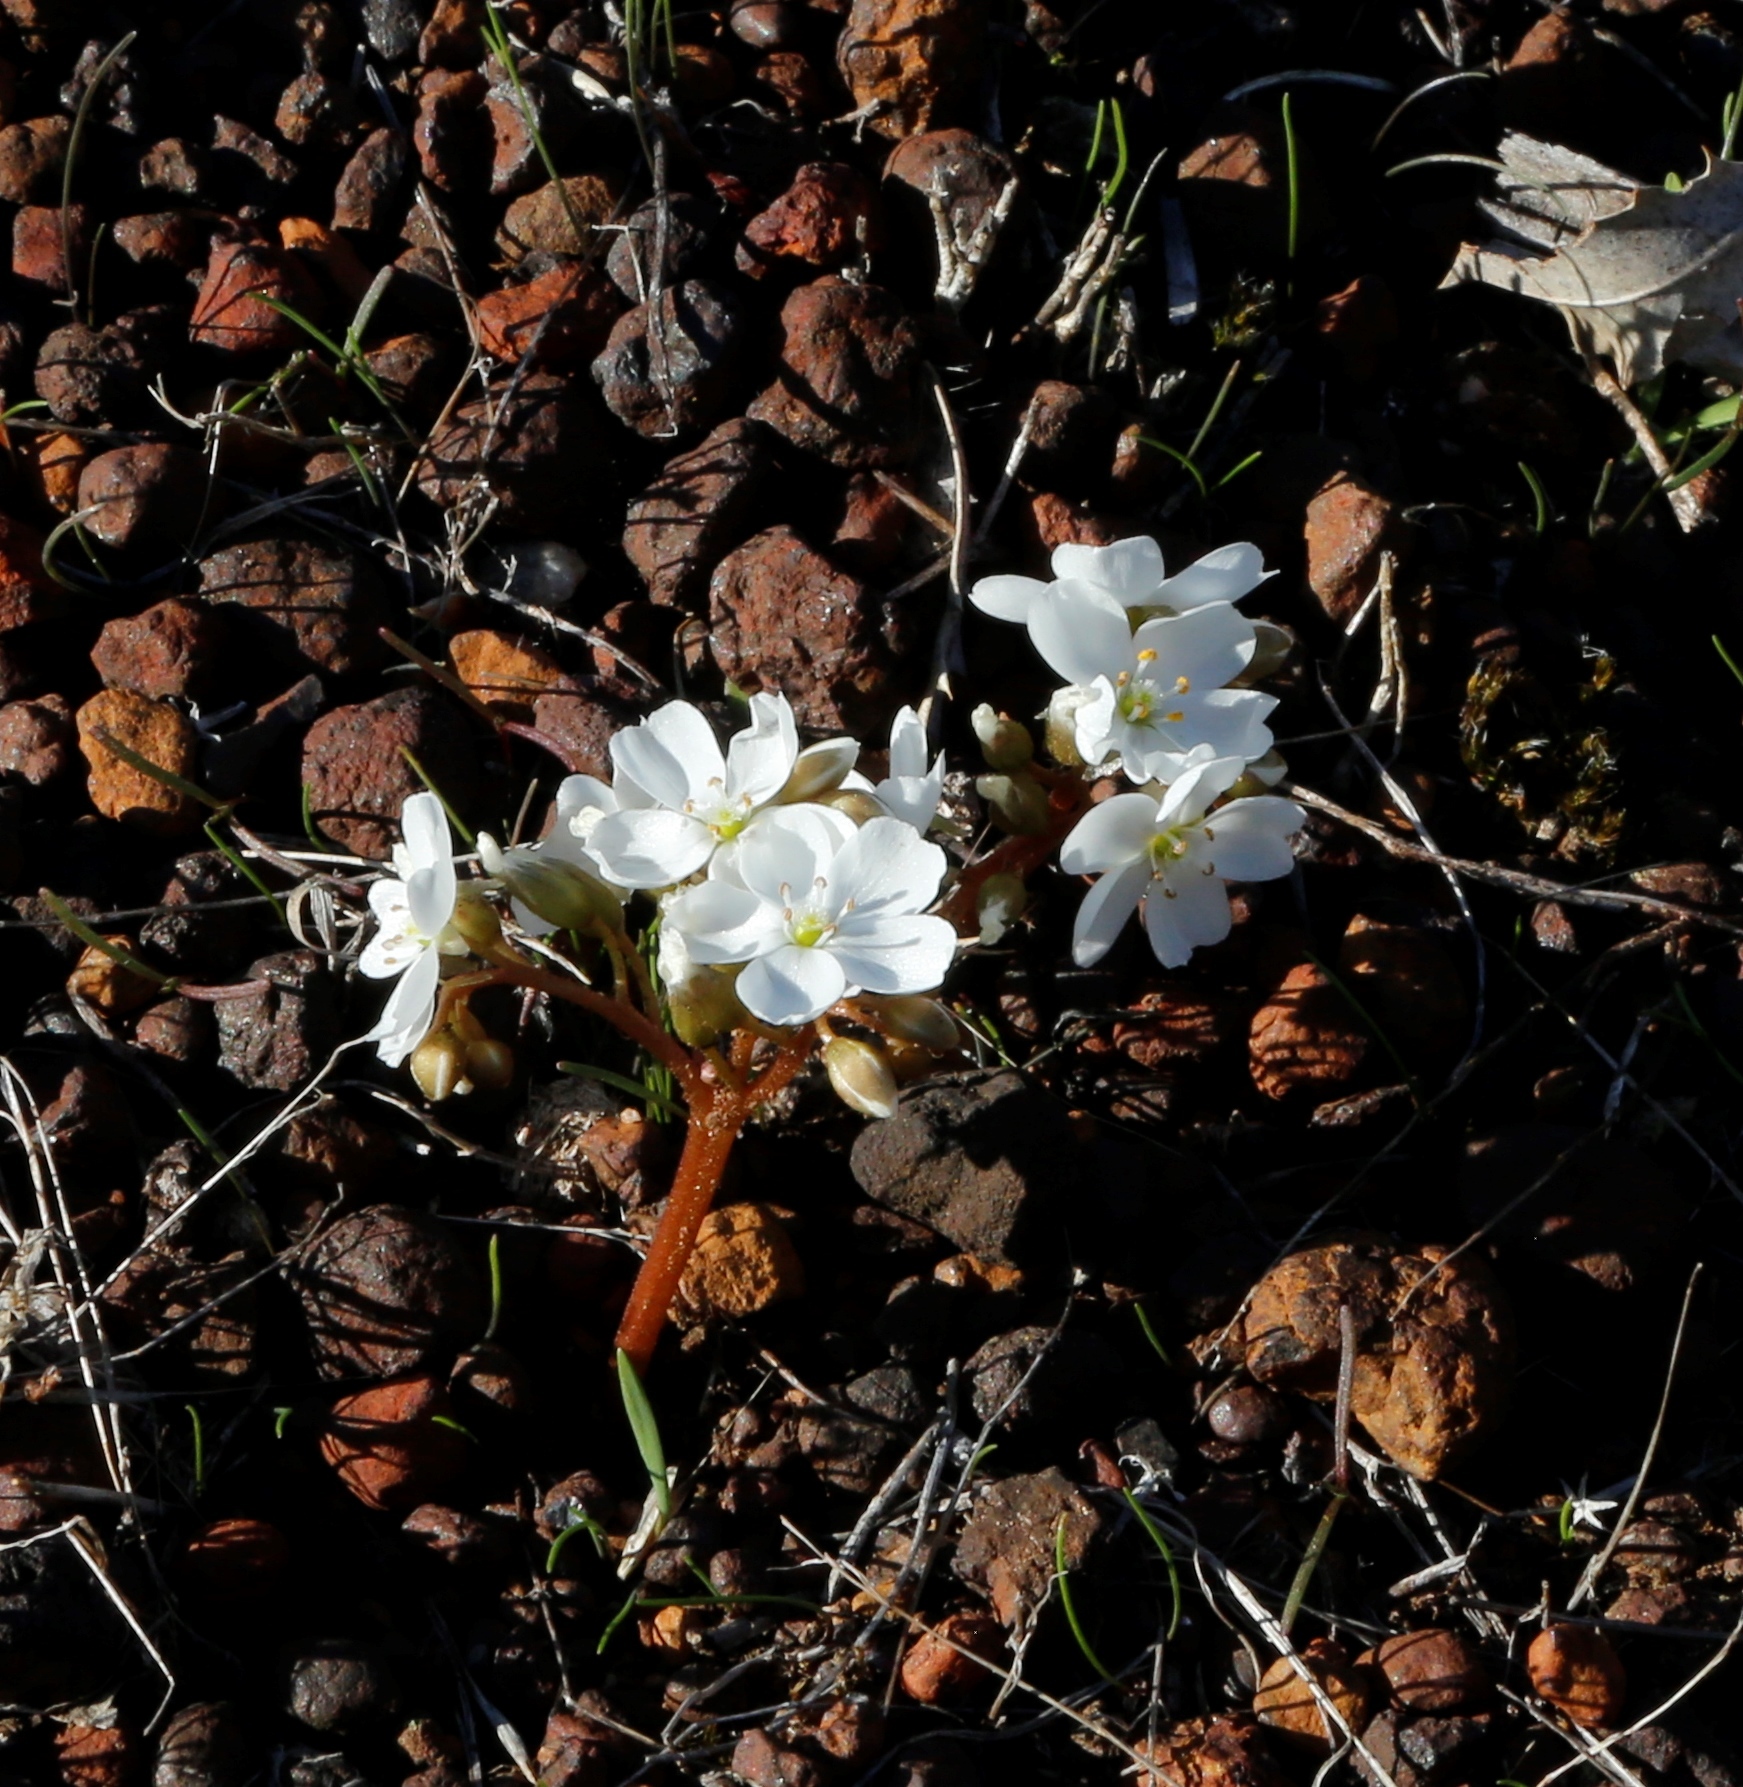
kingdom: Plantae
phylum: Tracheophyta
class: Magnoliopsida
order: Caryophyllales
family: Droseraceae
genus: Drosera
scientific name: Drosera erythrorhiza
